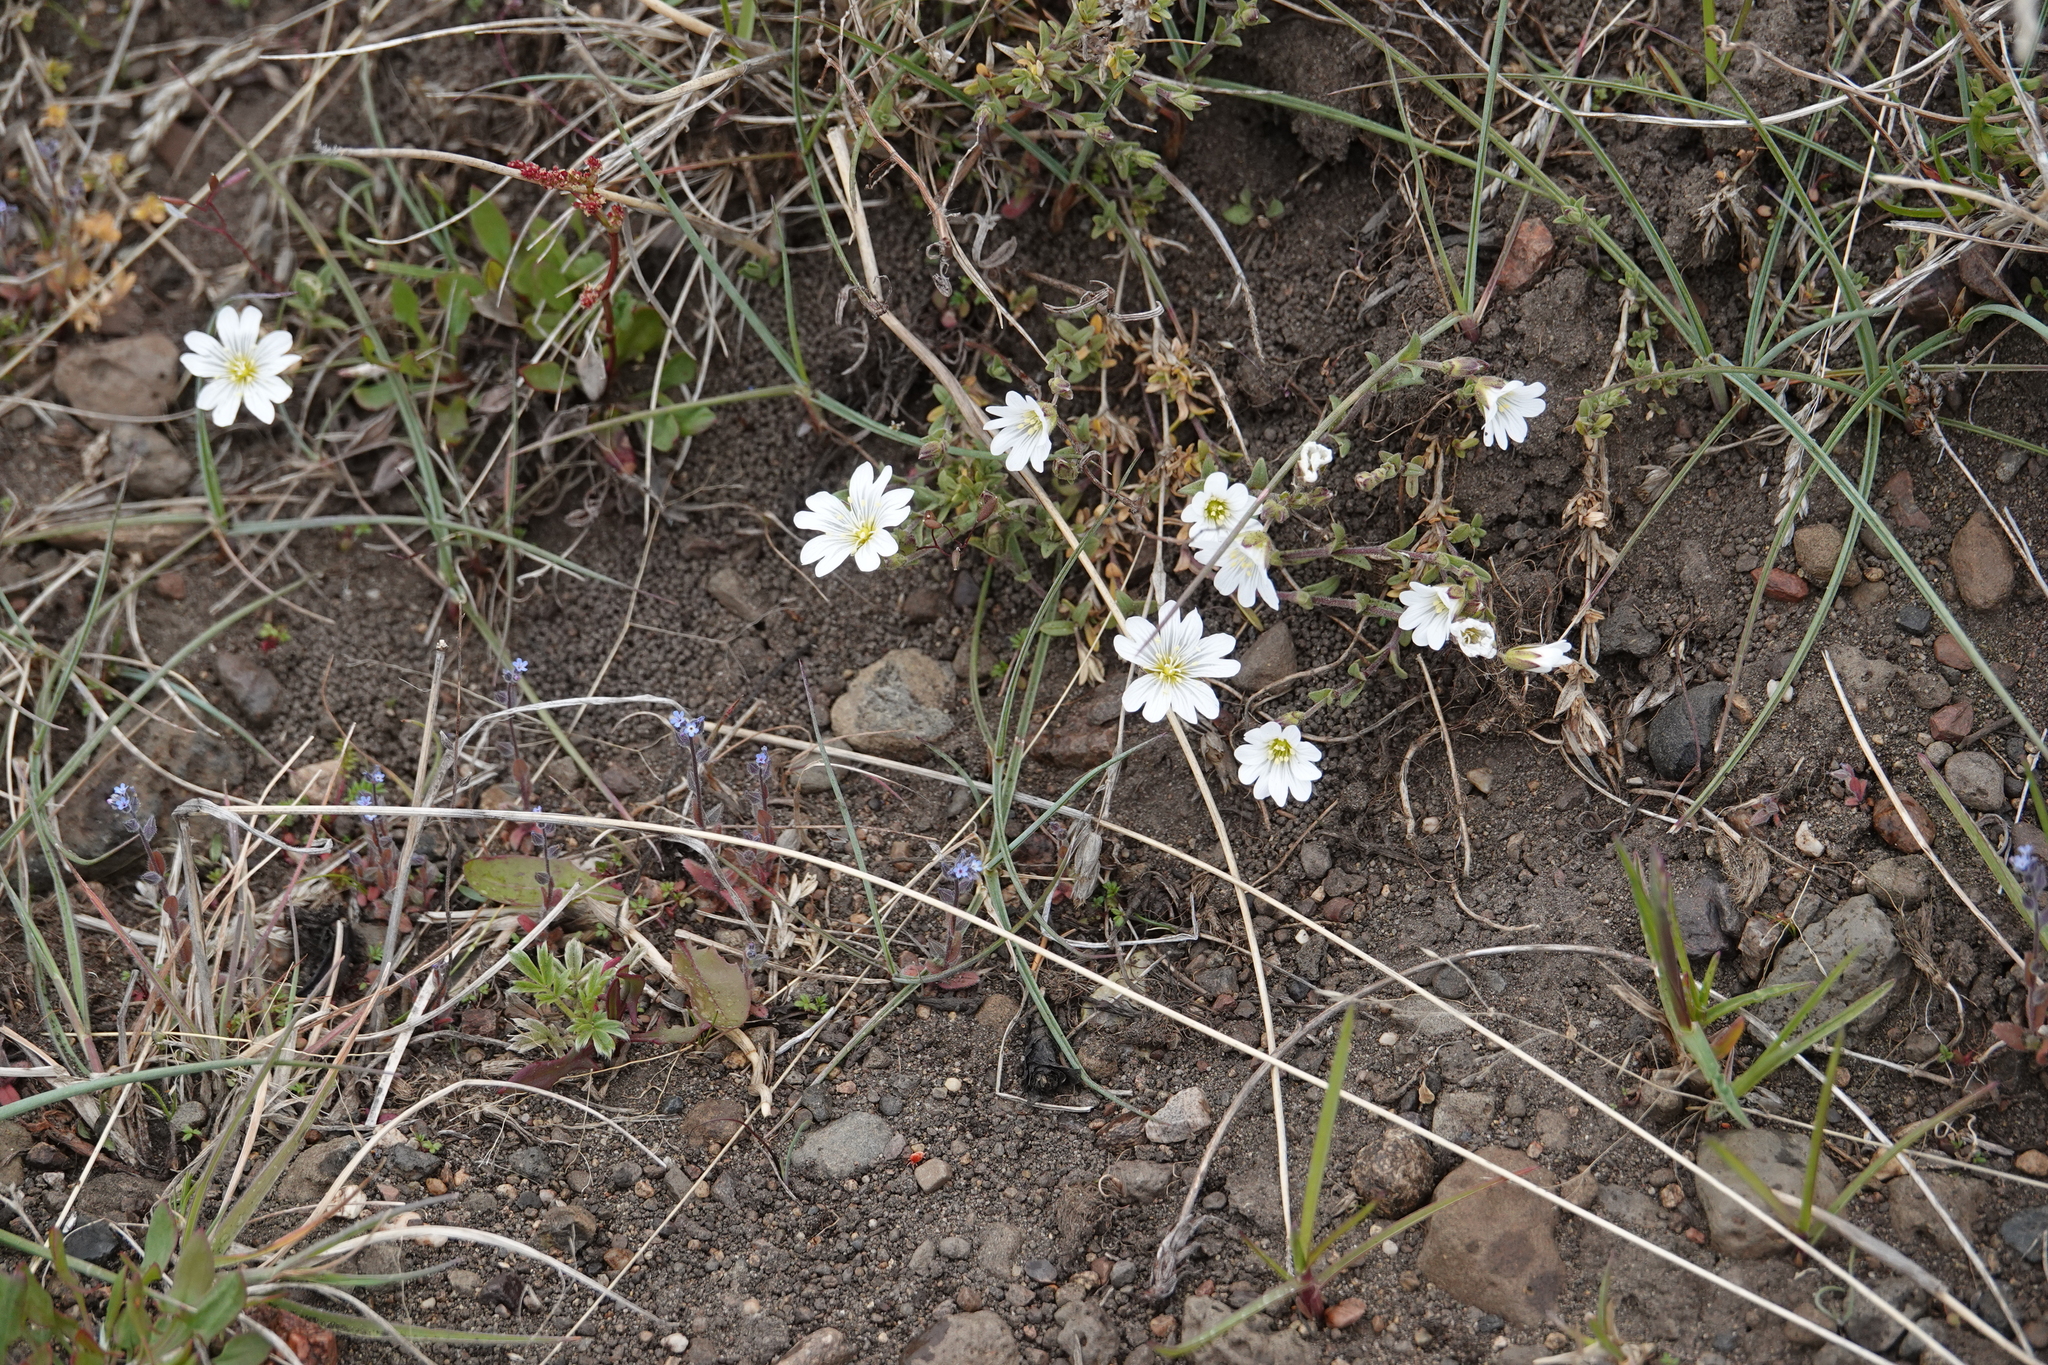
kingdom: Plantae
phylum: Tracheophyta
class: Magnoliopsida
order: Caryophyllales
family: Caryophyllaceae
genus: Cerastium
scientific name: Cerastium arvense
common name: Field mouse-ear
